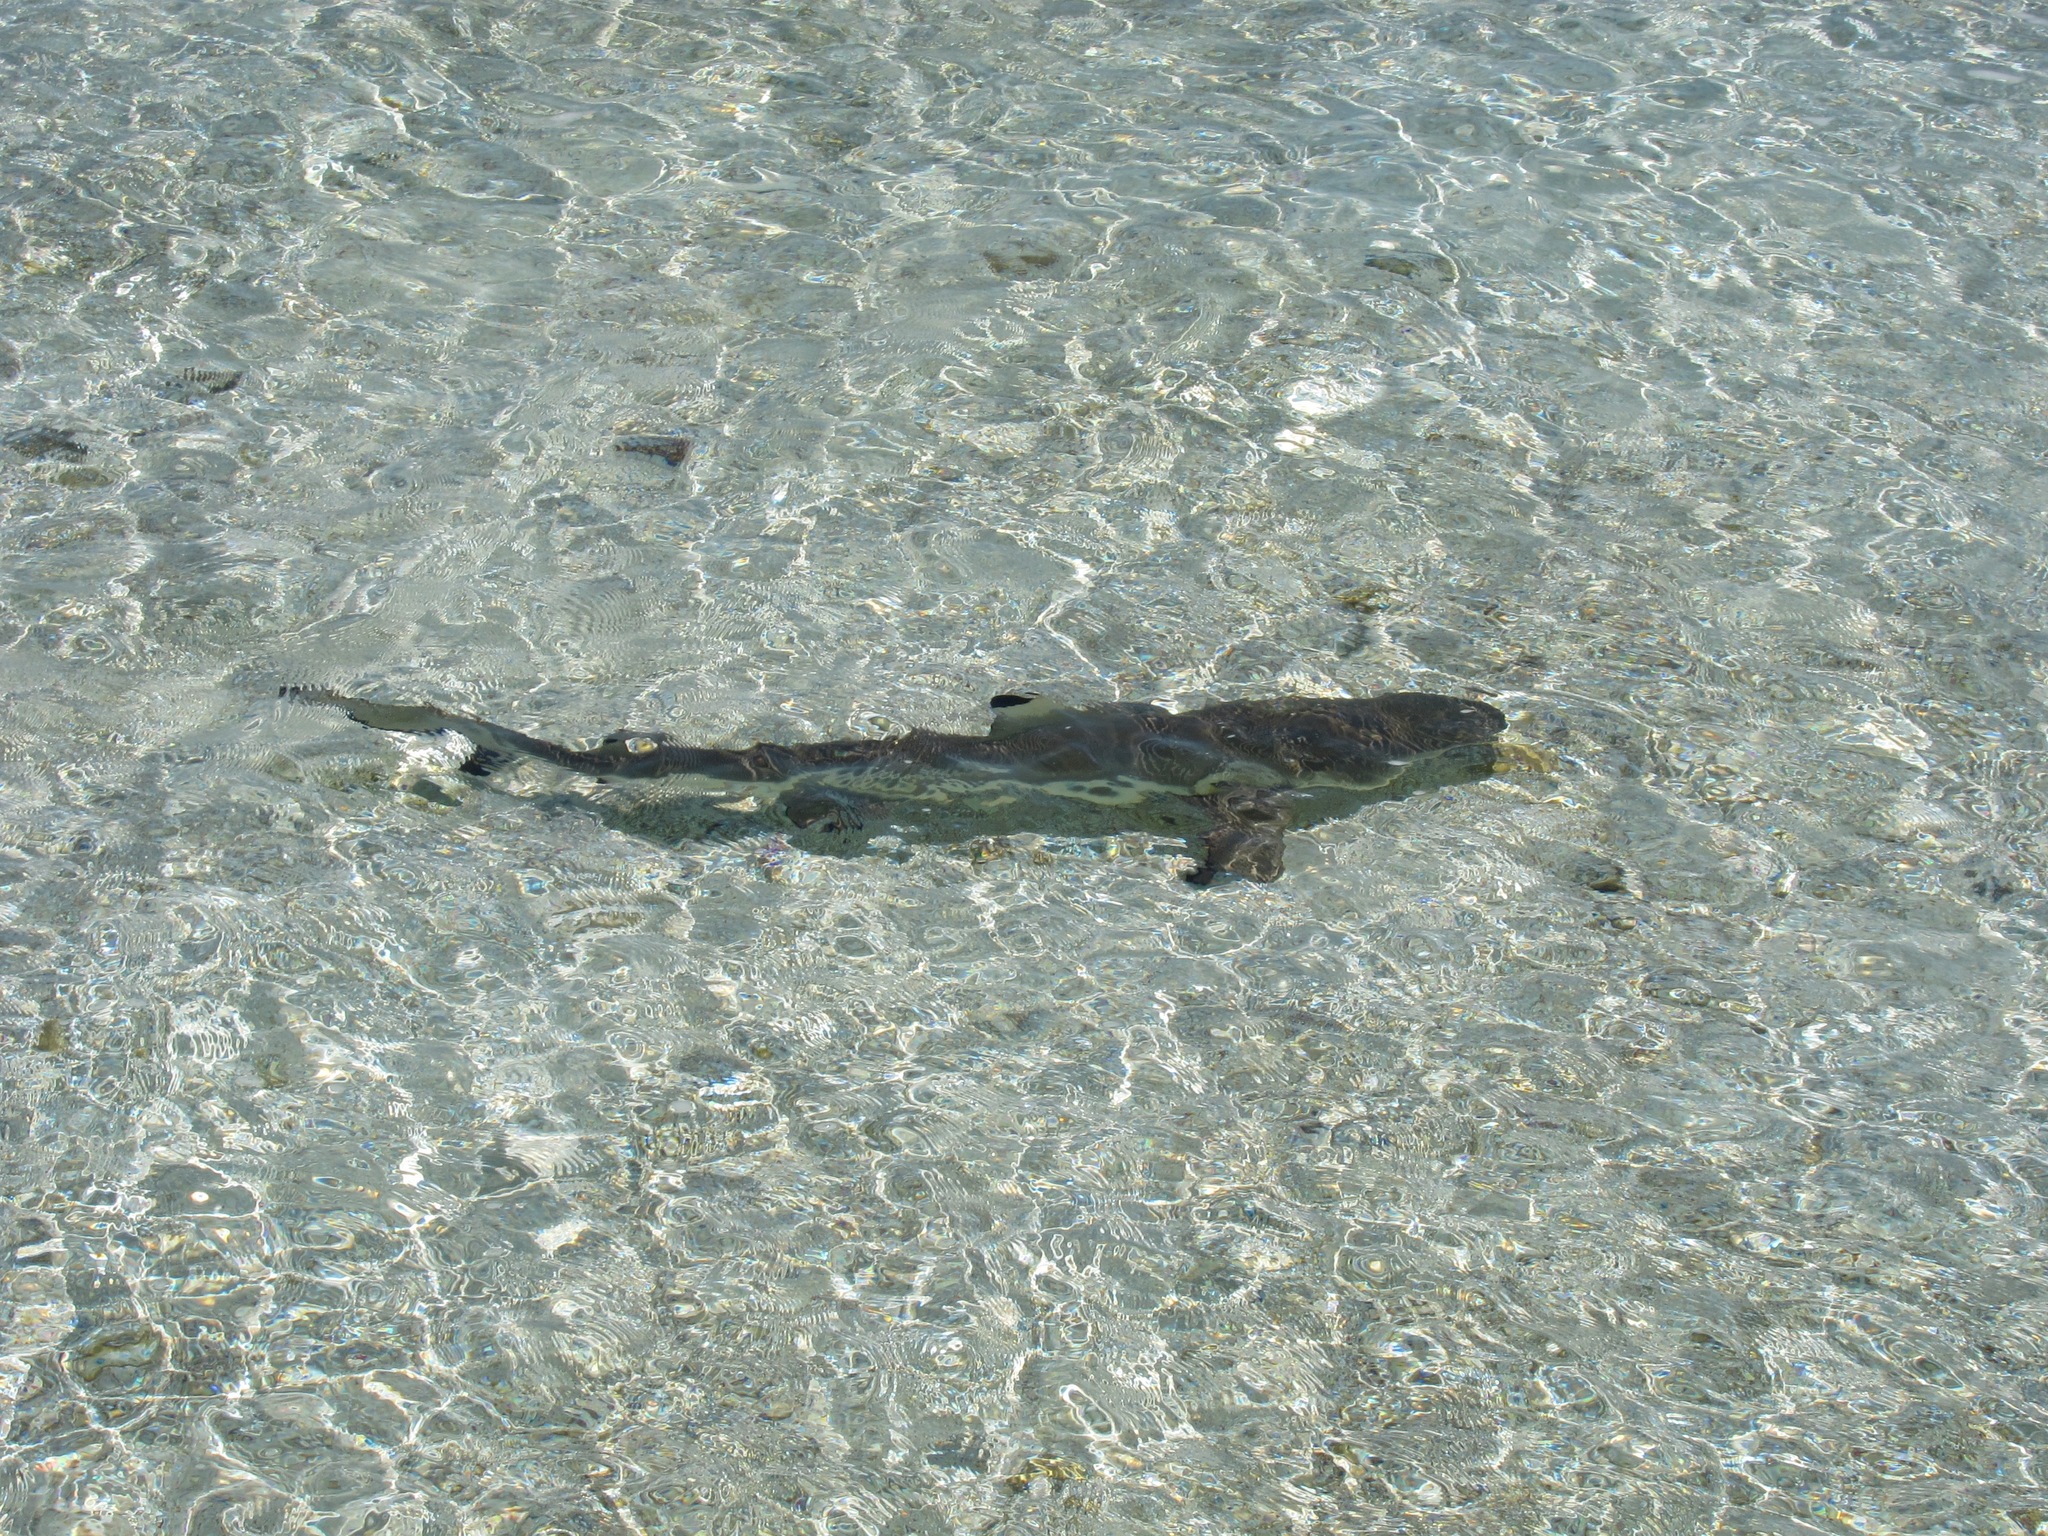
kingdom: Animalia
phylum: Chordata
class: Elasmobranchii
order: Carcharhiniformes
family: Carcharhinidae
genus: Carcharhinus
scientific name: Carcharhinus melanopterus
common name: Blacktip reef shark
